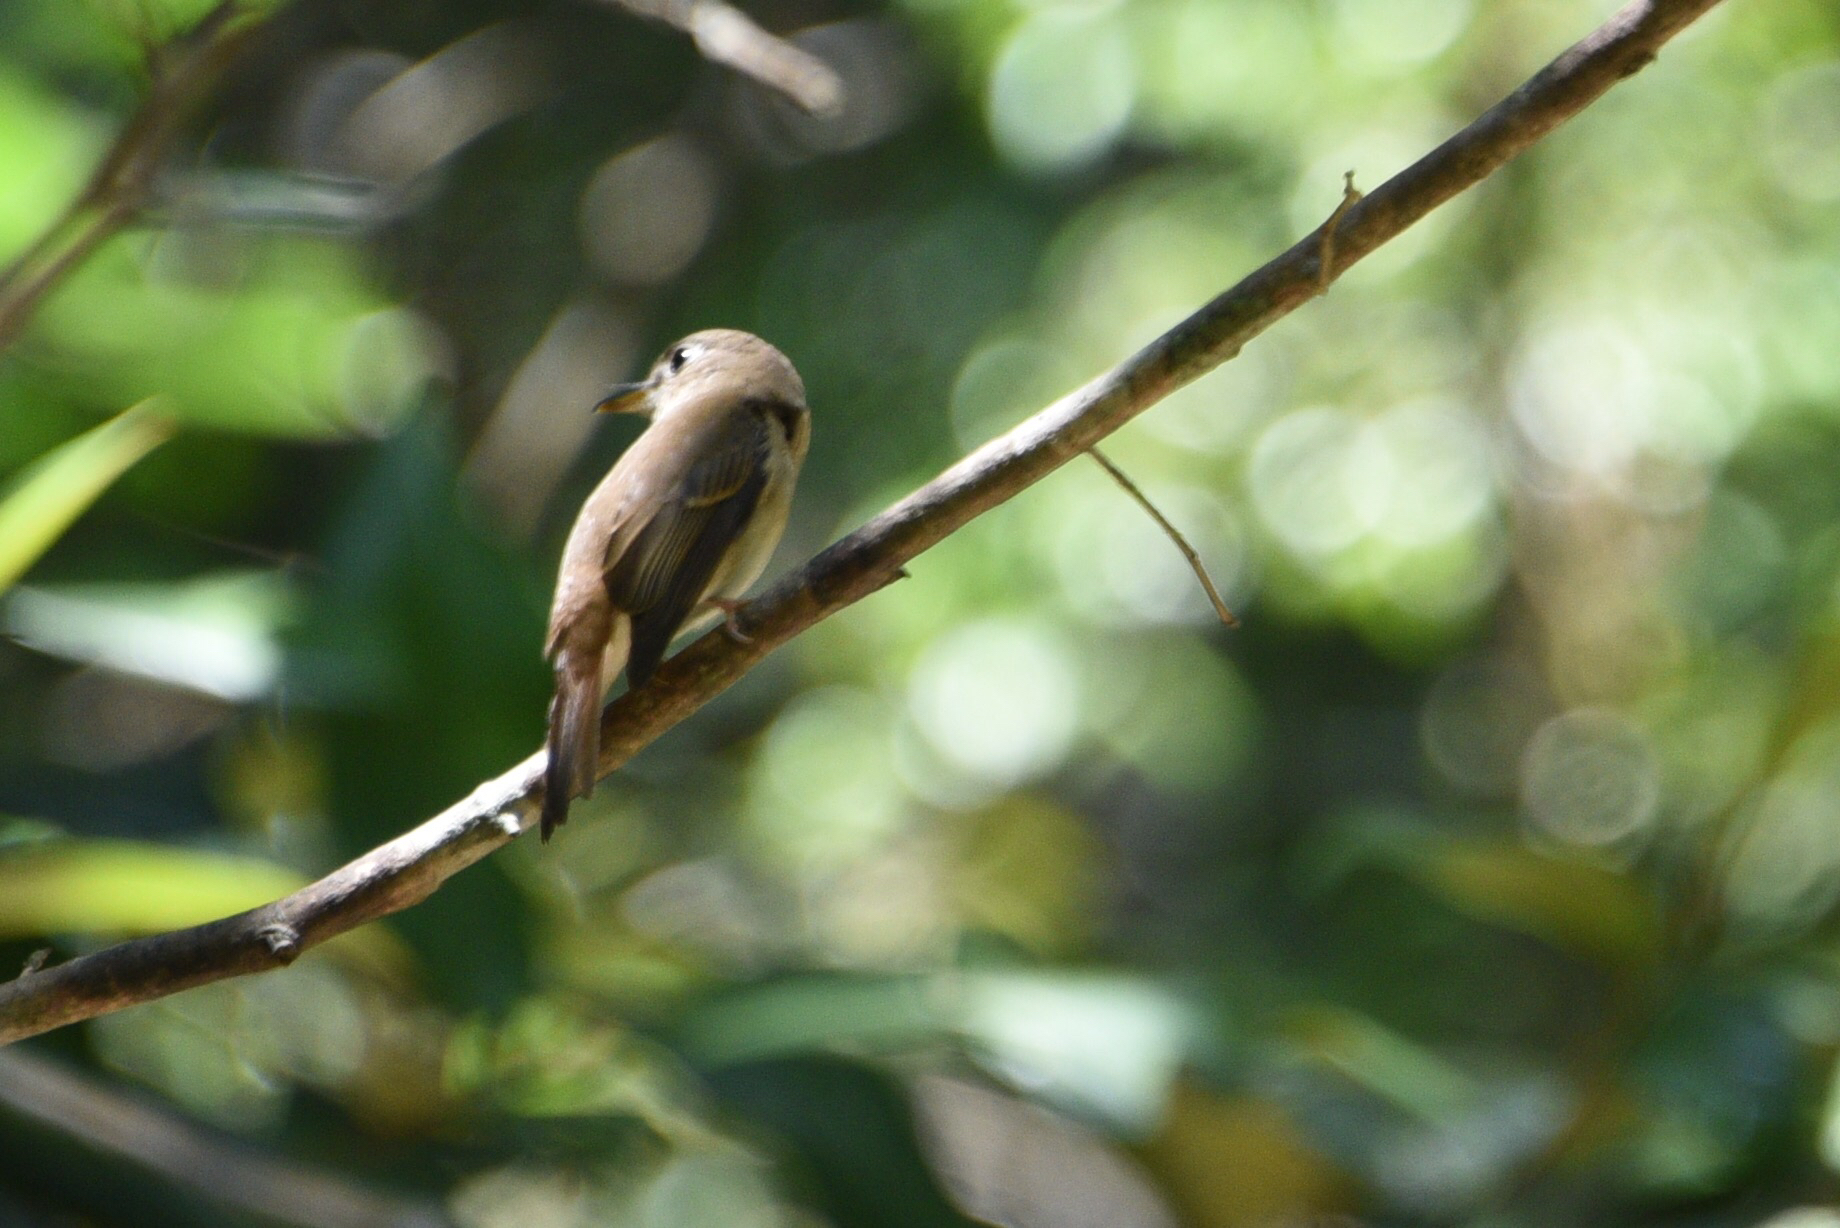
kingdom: Animalia
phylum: Chordata
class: Aves
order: Passeriformes
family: Muscicapidae
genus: Muscicapa
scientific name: Muscicapa muttui
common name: Brown-breasted flycatcher
